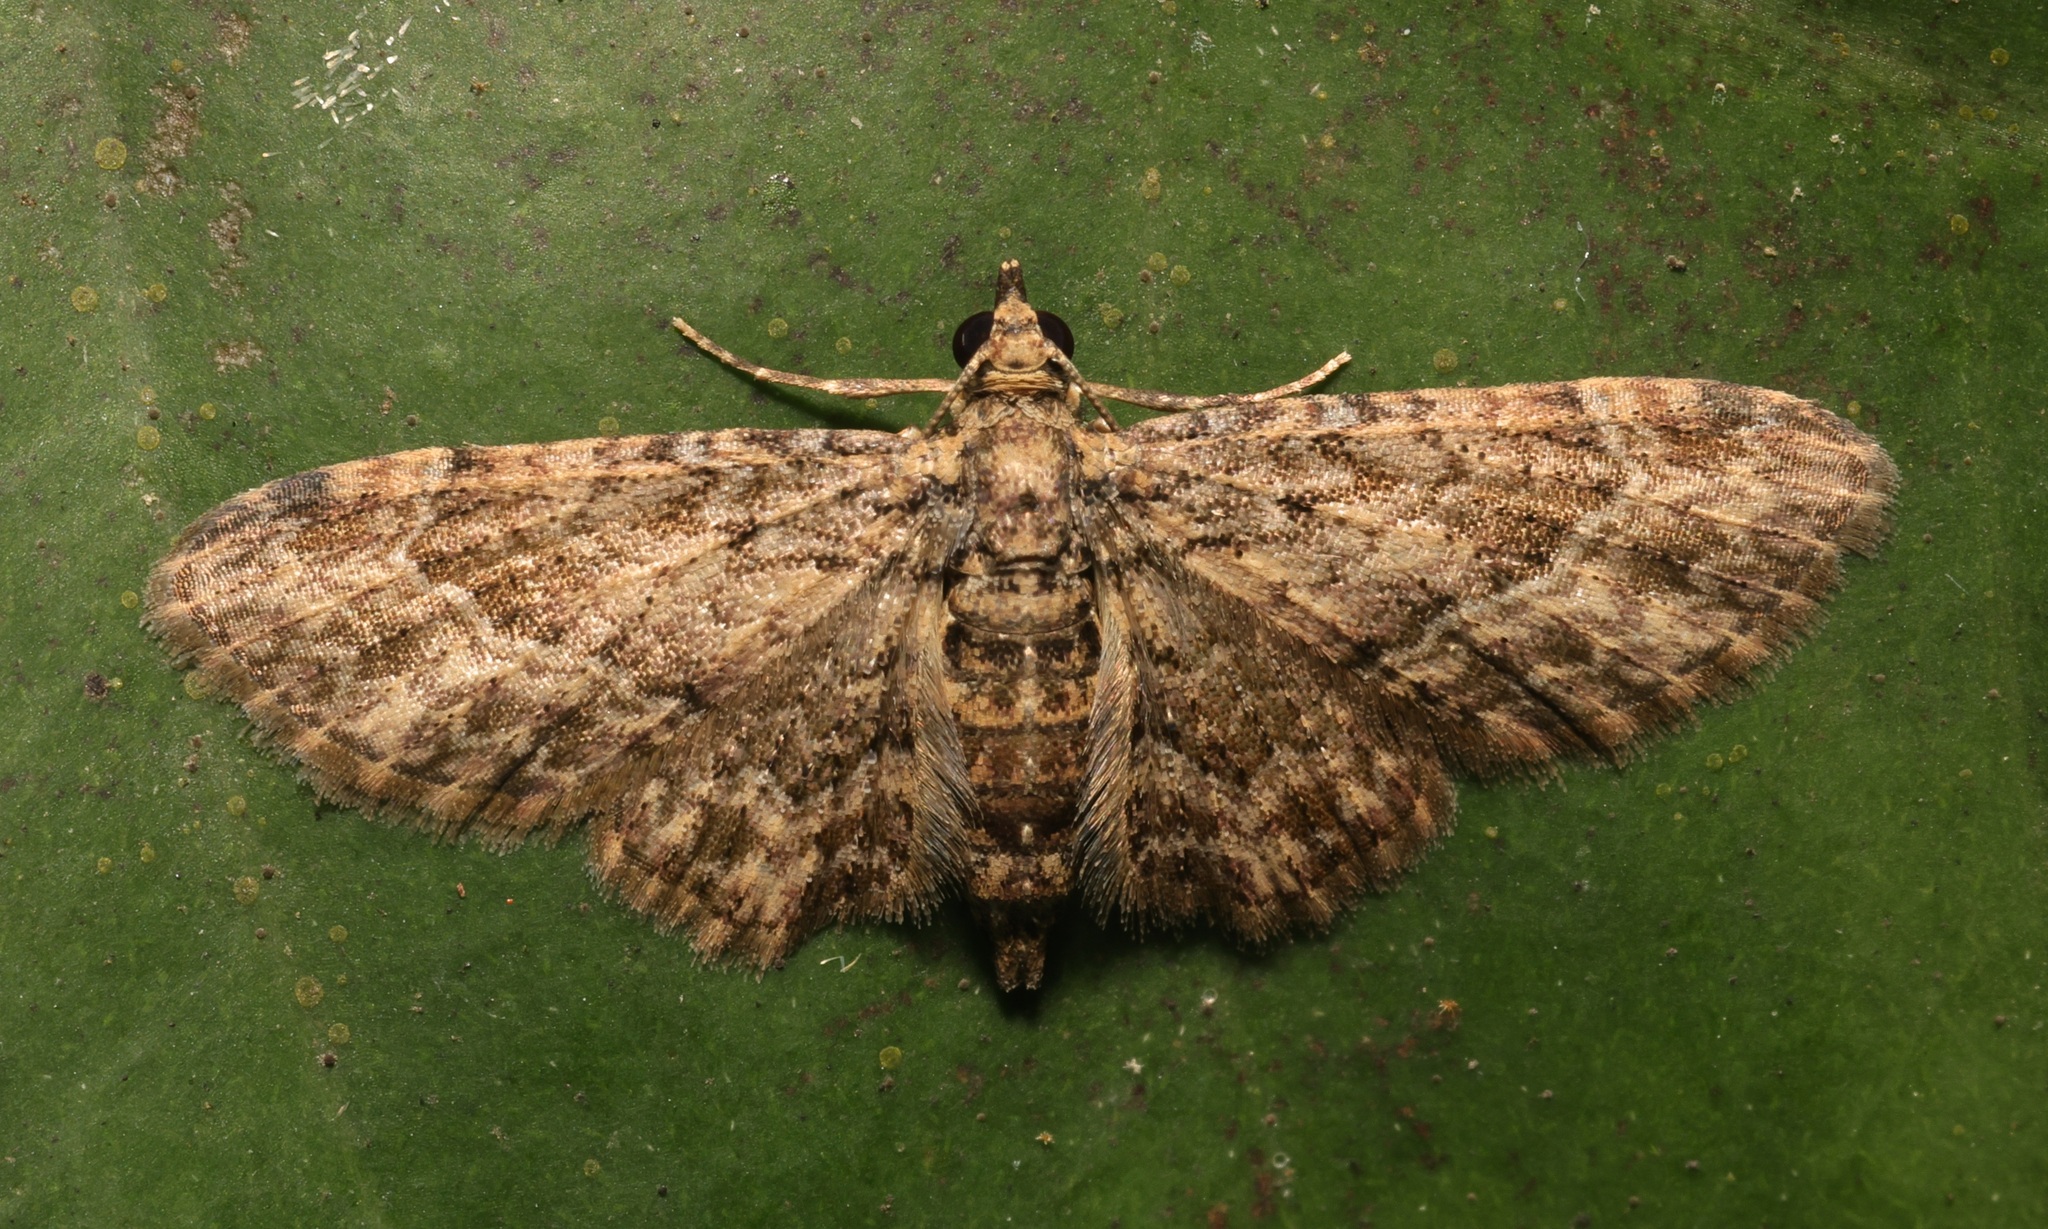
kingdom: Animalia
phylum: Arthropoda
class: Insecta
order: Lepidoptera
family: Geometridae
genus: Gymnoscelis
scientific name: Gymnoscelis subpumilata
